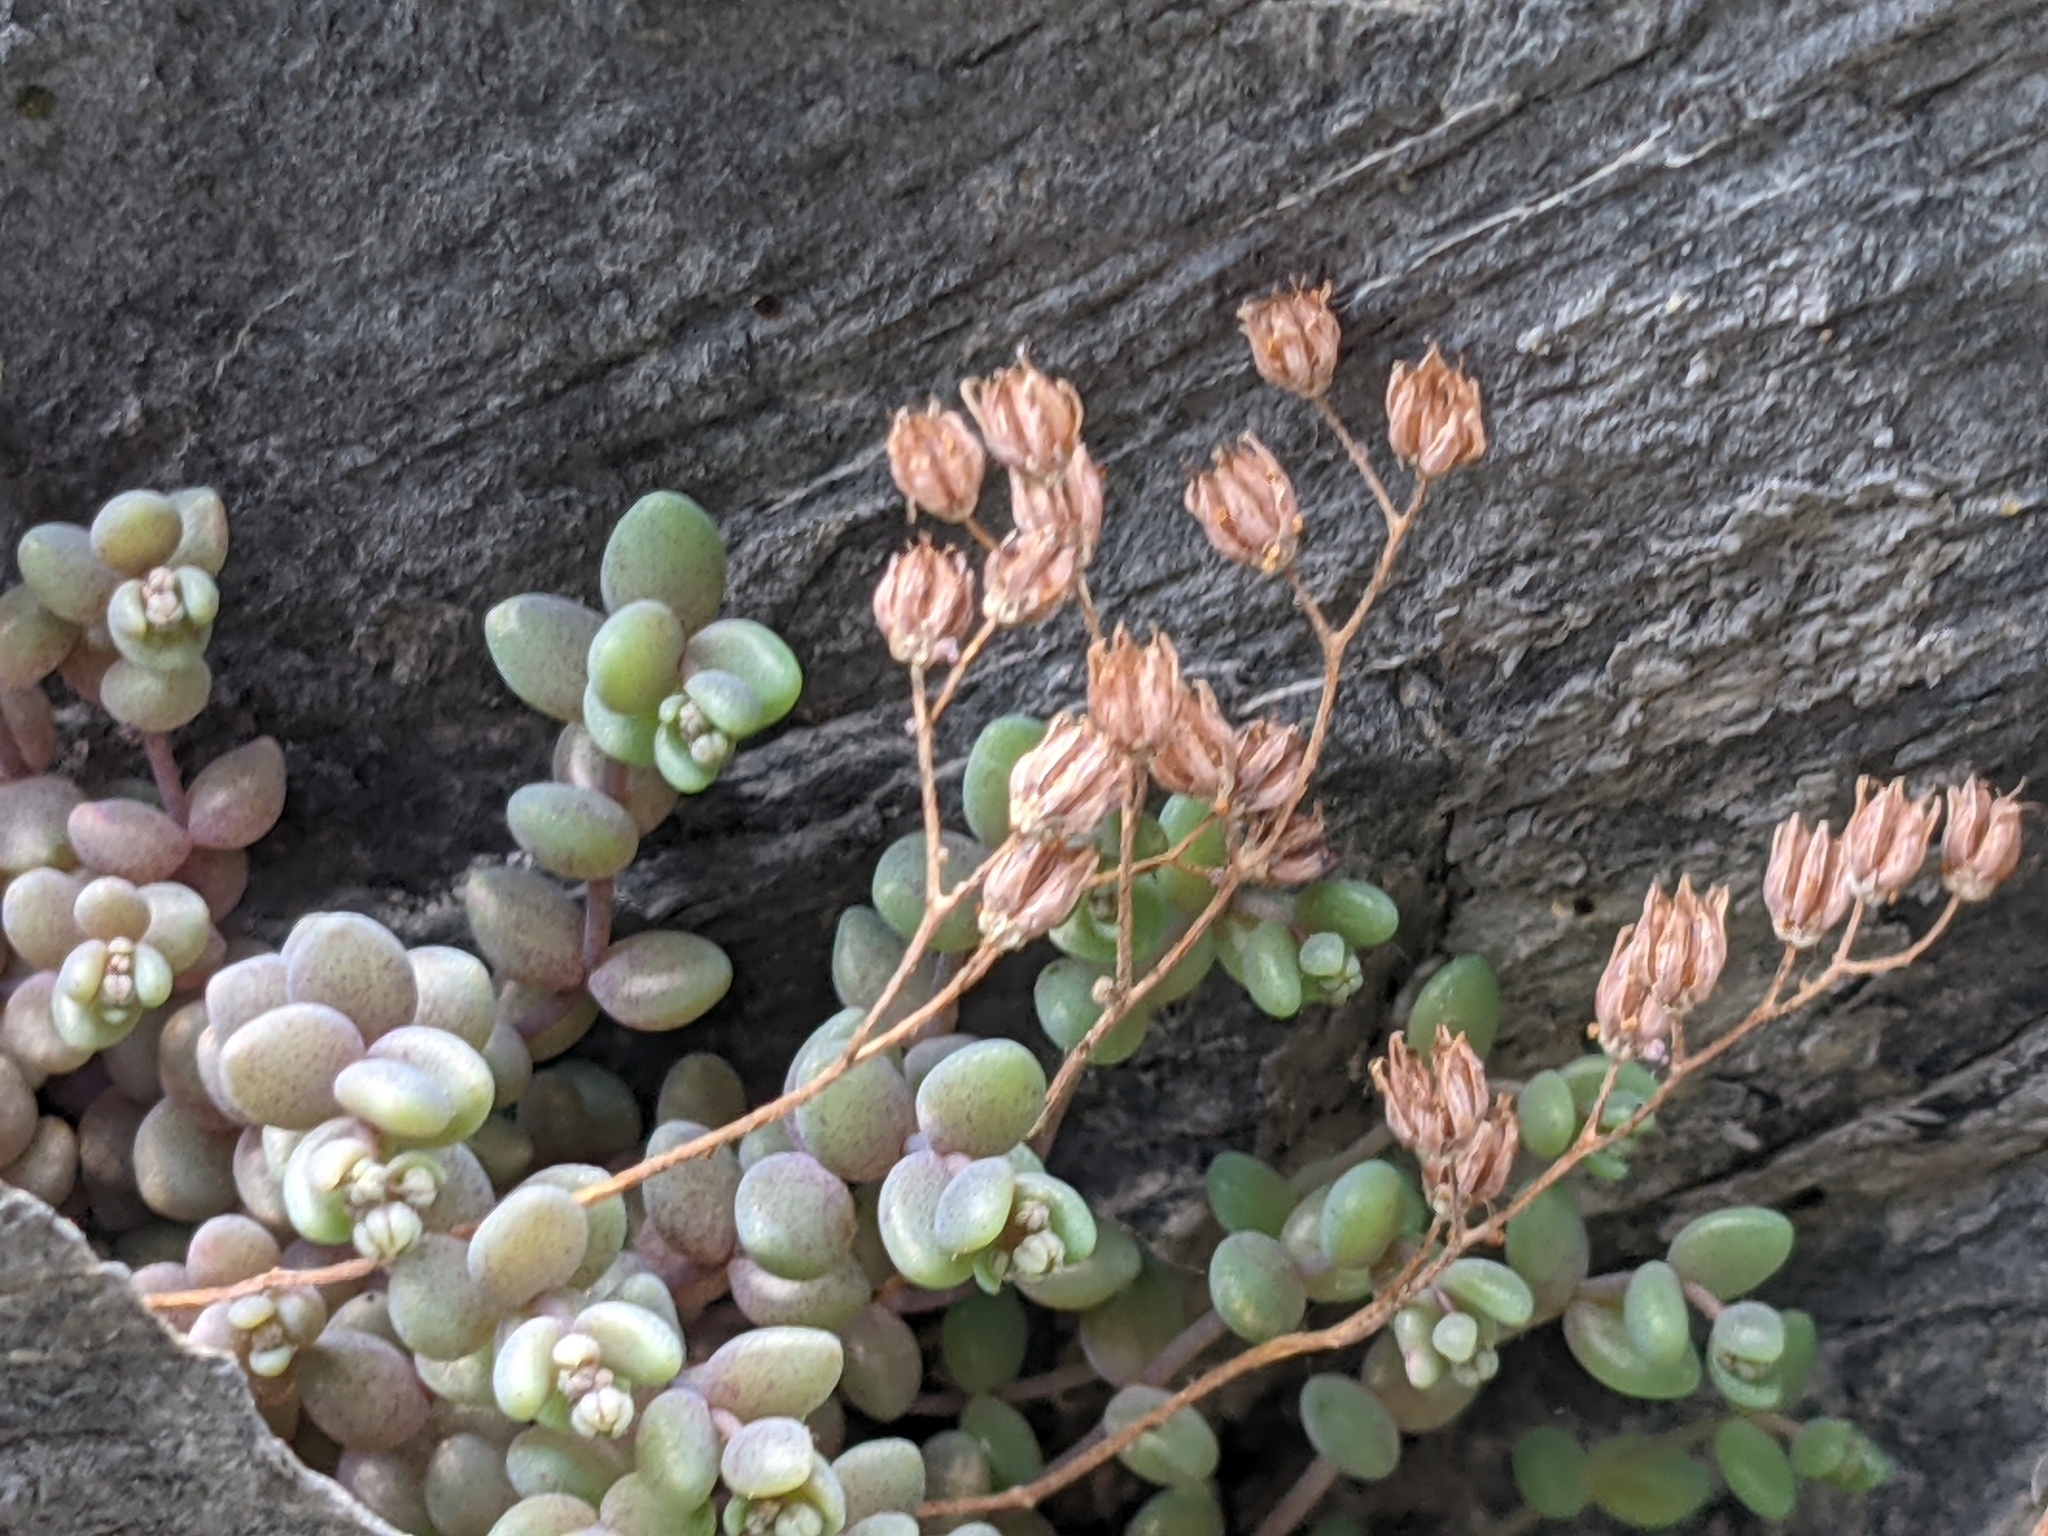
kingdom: Plantae
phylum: Tracheophyta
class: Magnoliopsida
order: Saxifragales
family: Crassulaceae
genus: Sedum
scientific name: Sedum dasyphyllum
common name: Thick-leaf stonecrop
